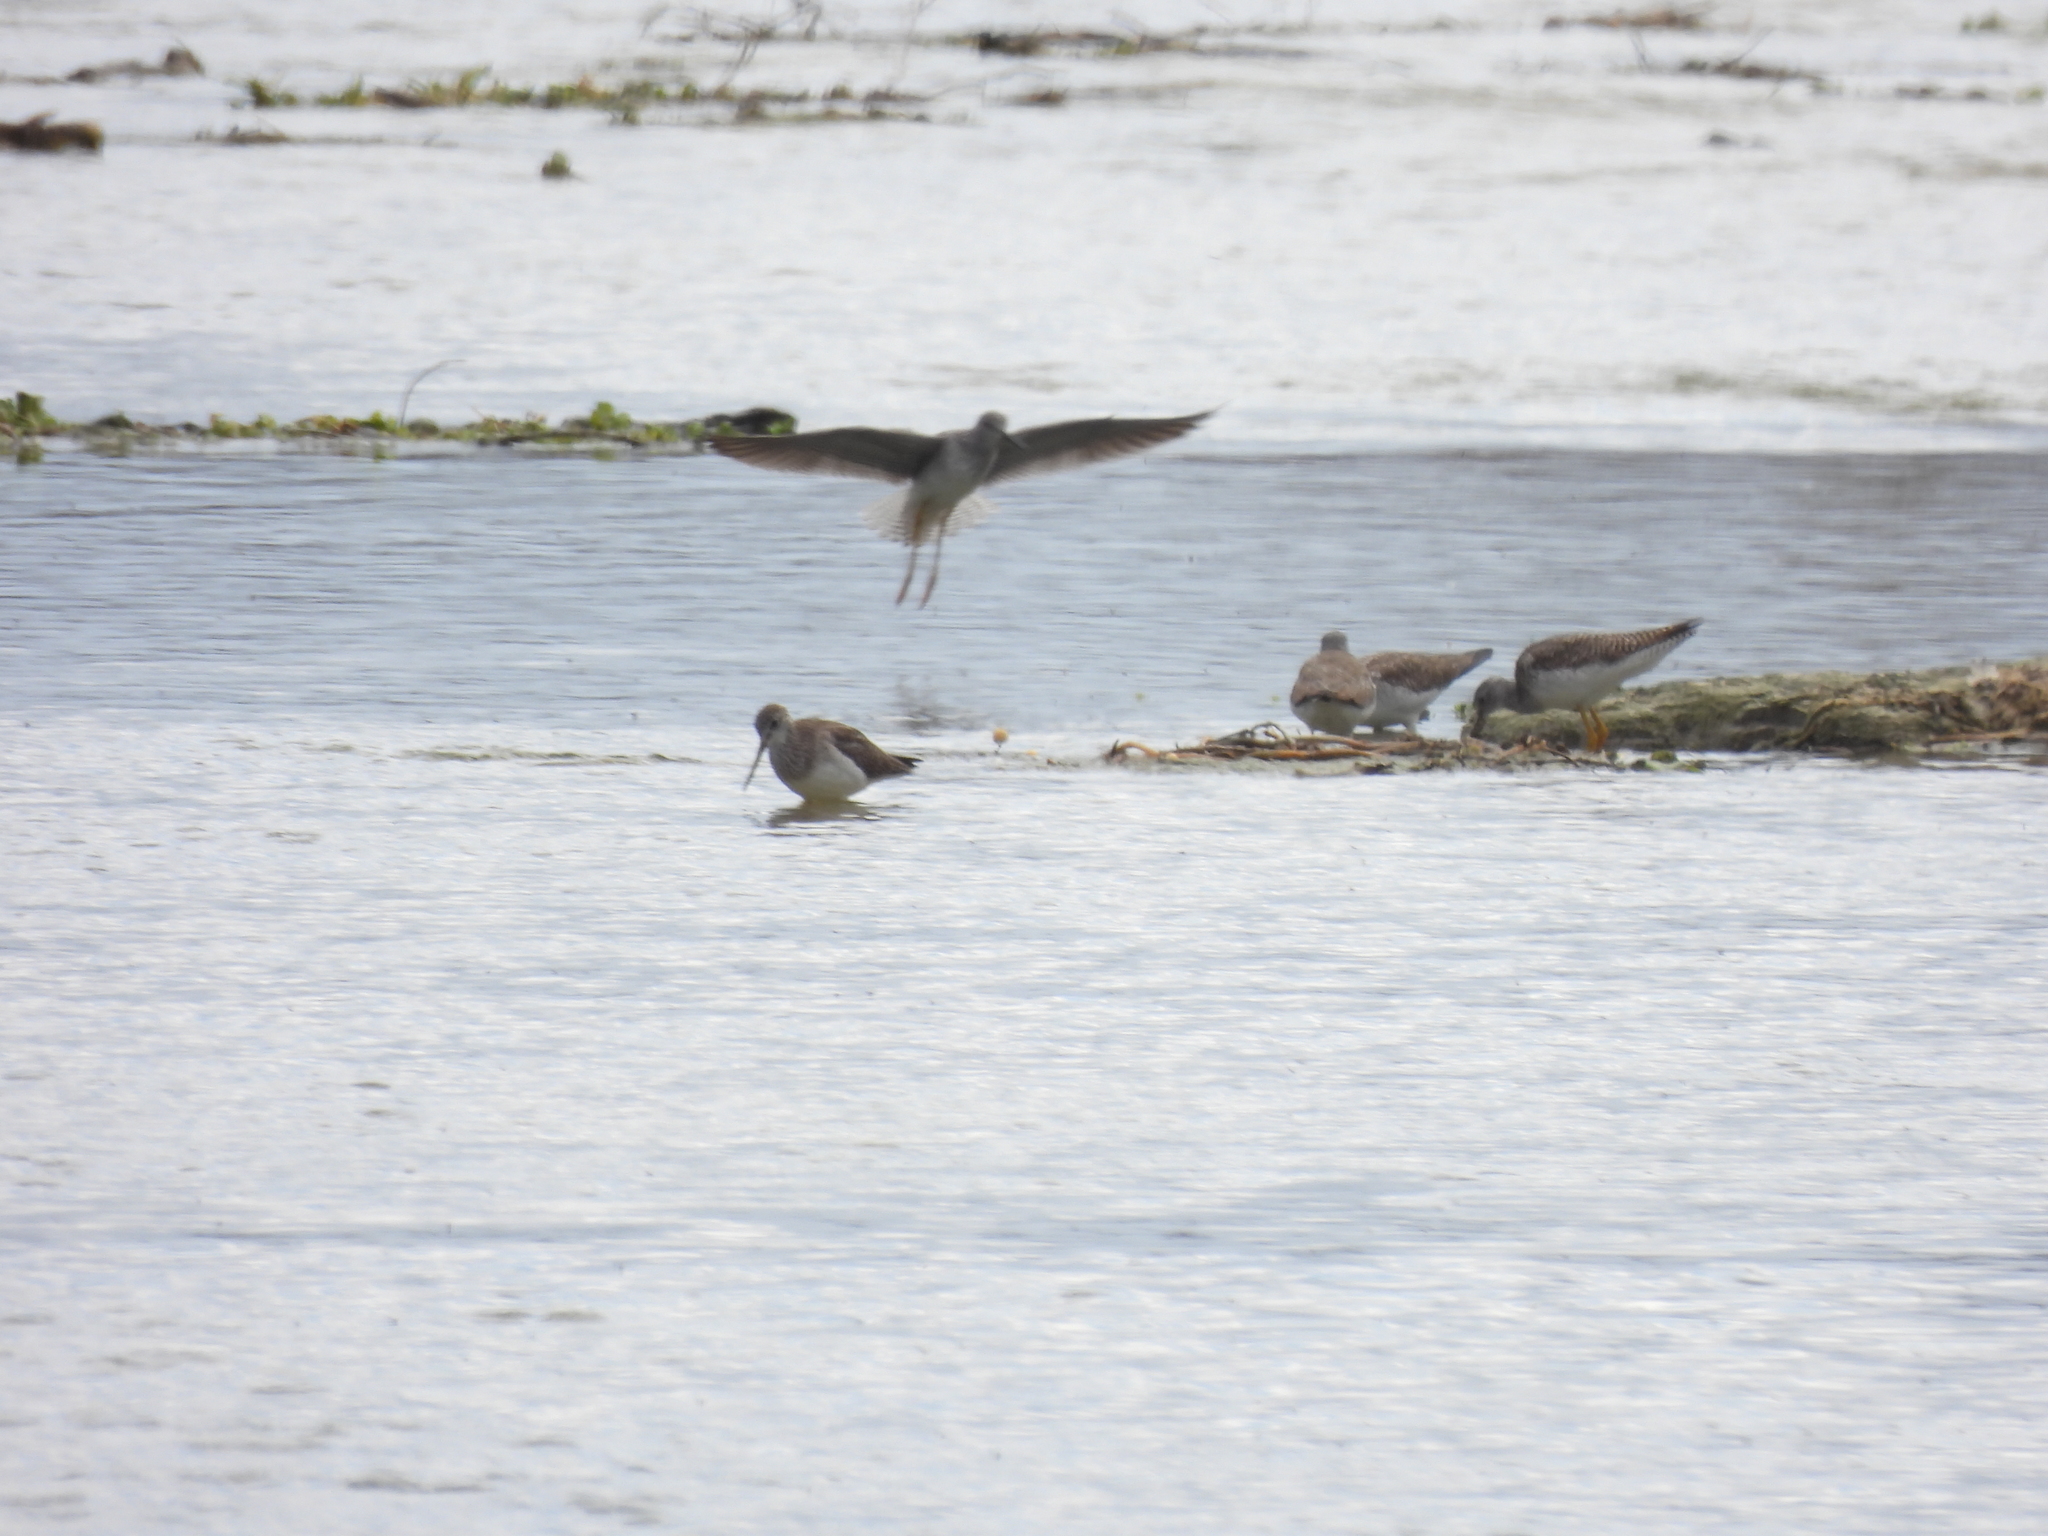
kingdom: Animalia
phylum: Chordata
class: Aves
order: Charadriiformes
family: Scolopacidae
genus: Tringa
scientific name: Tringa melanoleuca
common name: Greater yellowlegs
